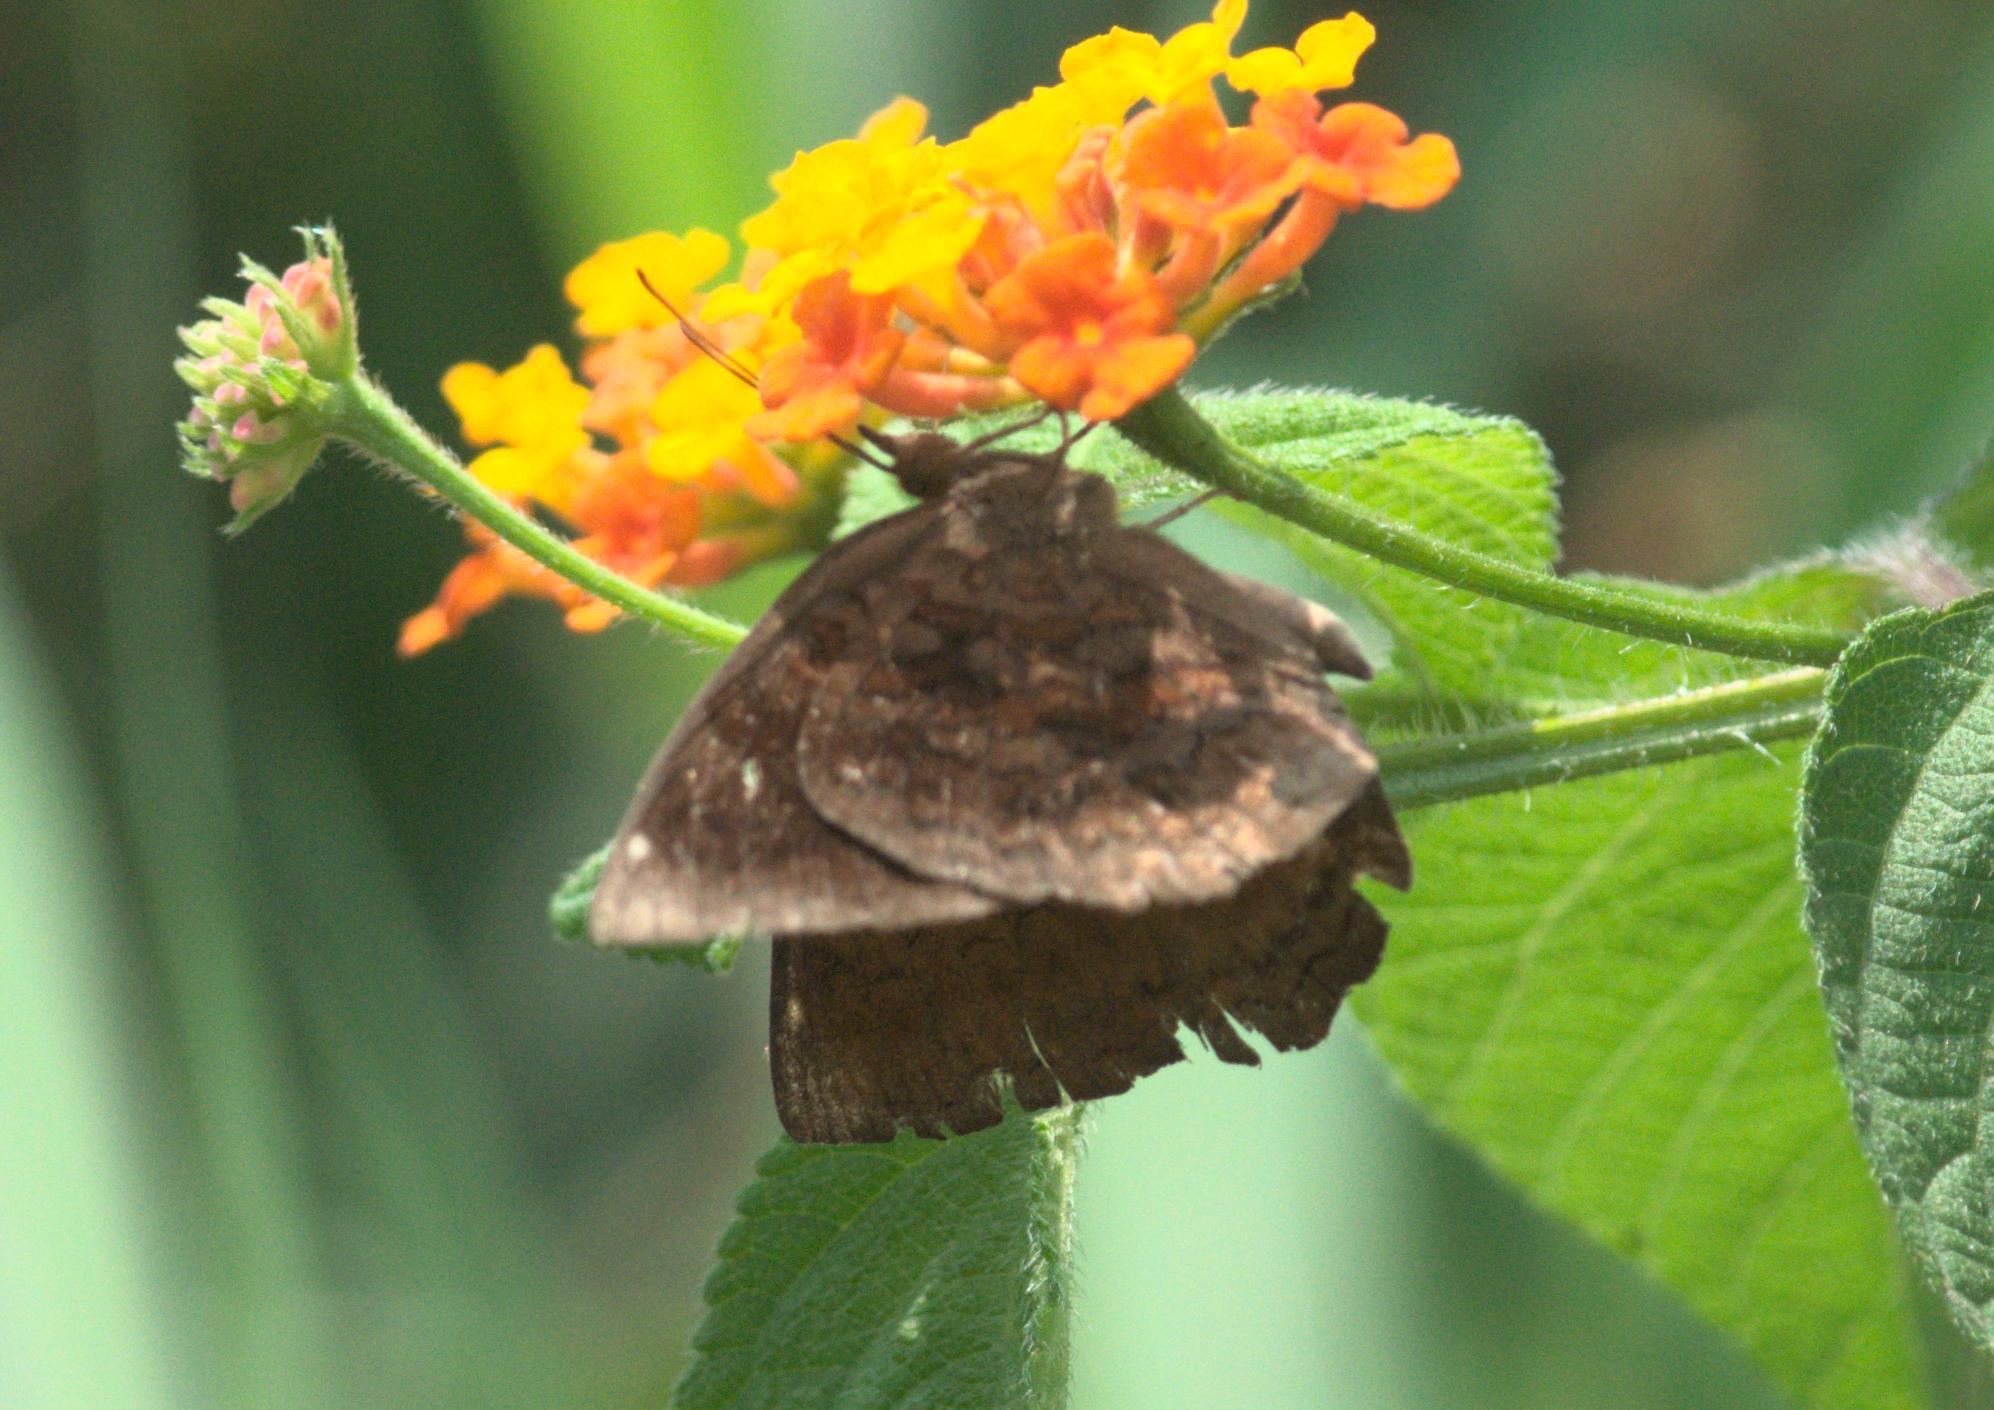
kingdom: Animalia
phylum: Arthropoda
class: Insecta
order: Lepidoptera
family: Nymphalidae
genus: Ariadne
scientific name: Ariadne merione
